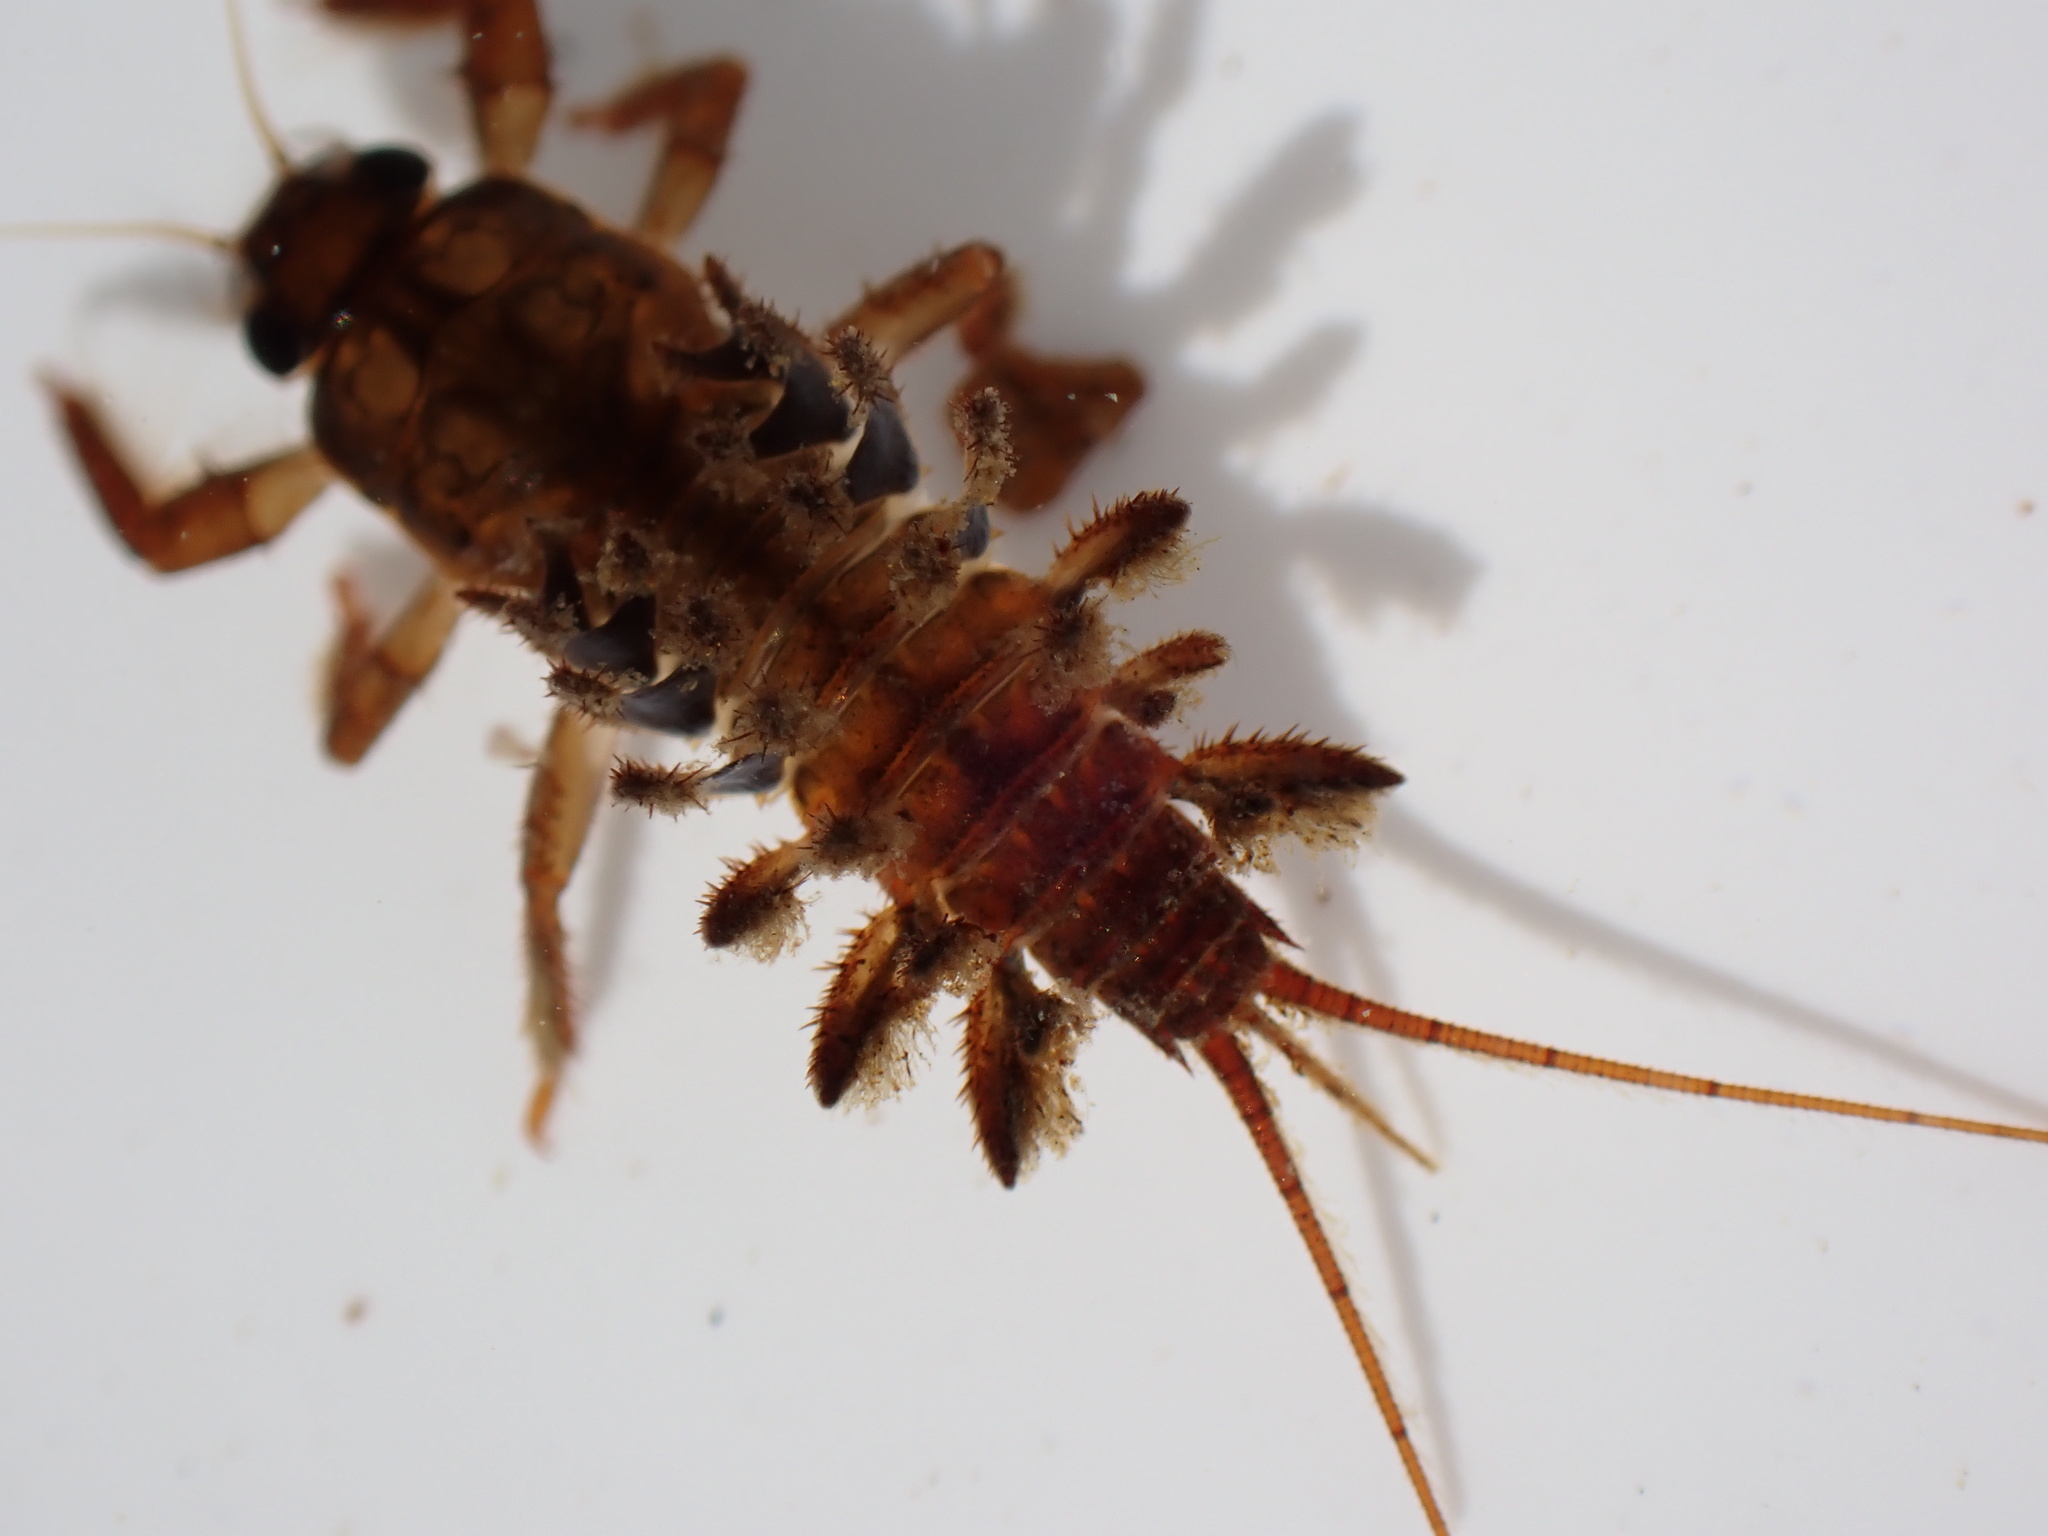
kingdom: Animalia
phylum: Arthropoda
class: Insecta
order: Ephemeroptera
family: Coloburiscidae
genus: Coloburiscus
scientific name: Coloburiscus humeralis
